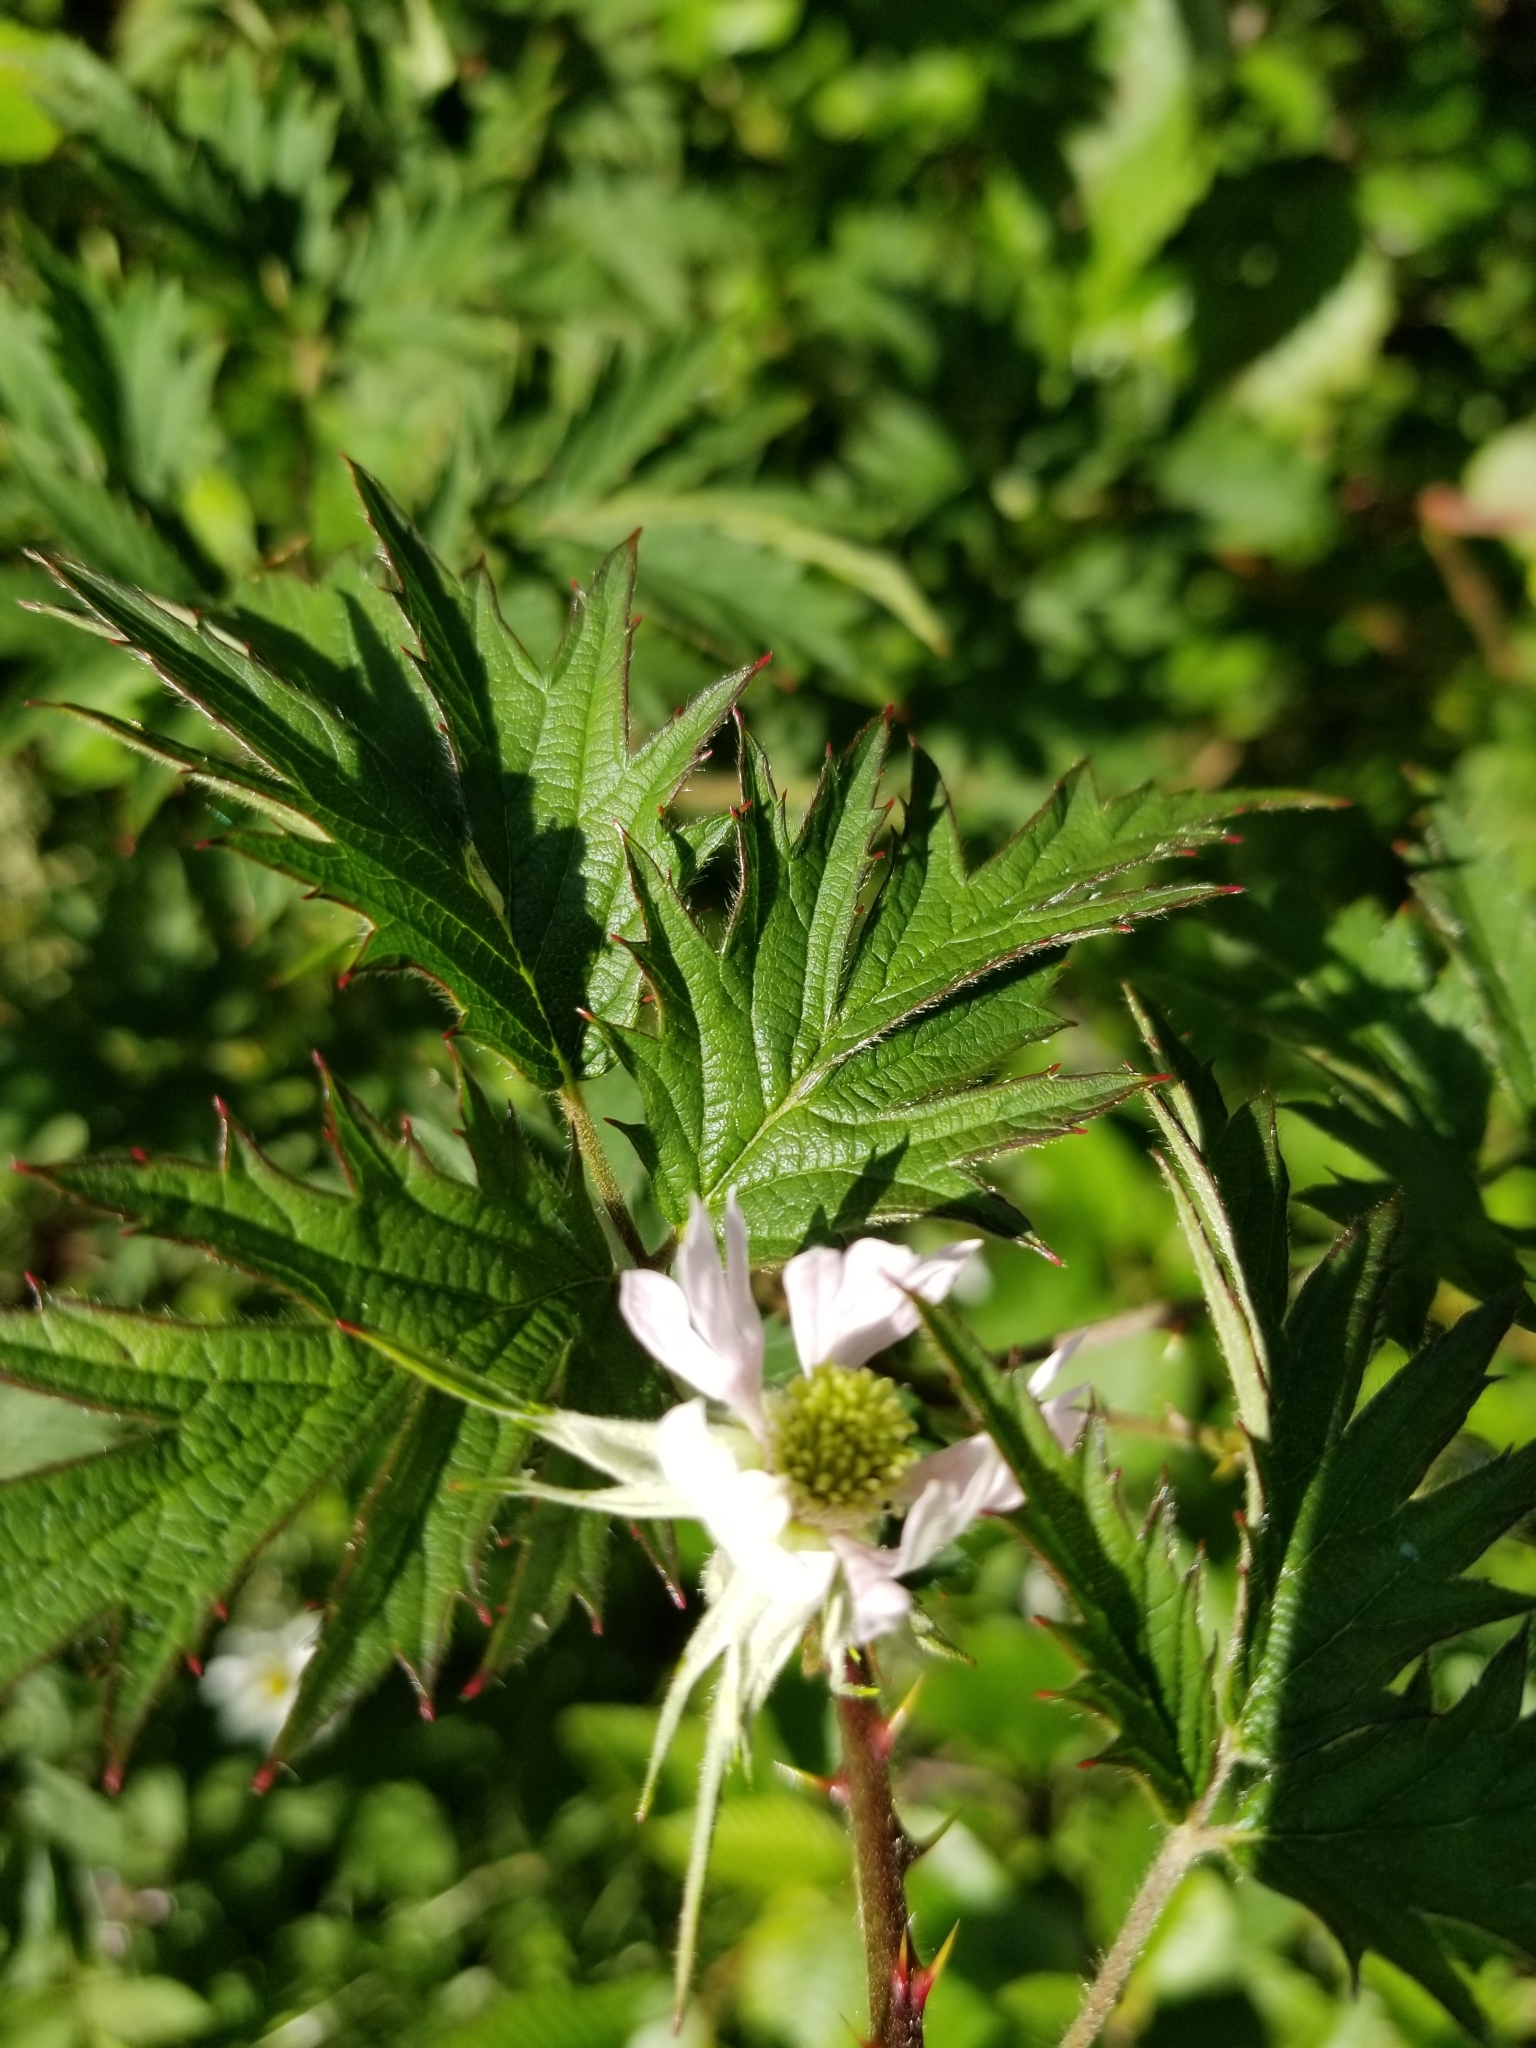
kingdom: Plantae
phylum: Tracheophyta
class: Magnoliopsida
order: Rosales
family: Rosaceae
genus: Rubus
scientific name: Rubus laciniatus
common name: Evergreen blackberry
